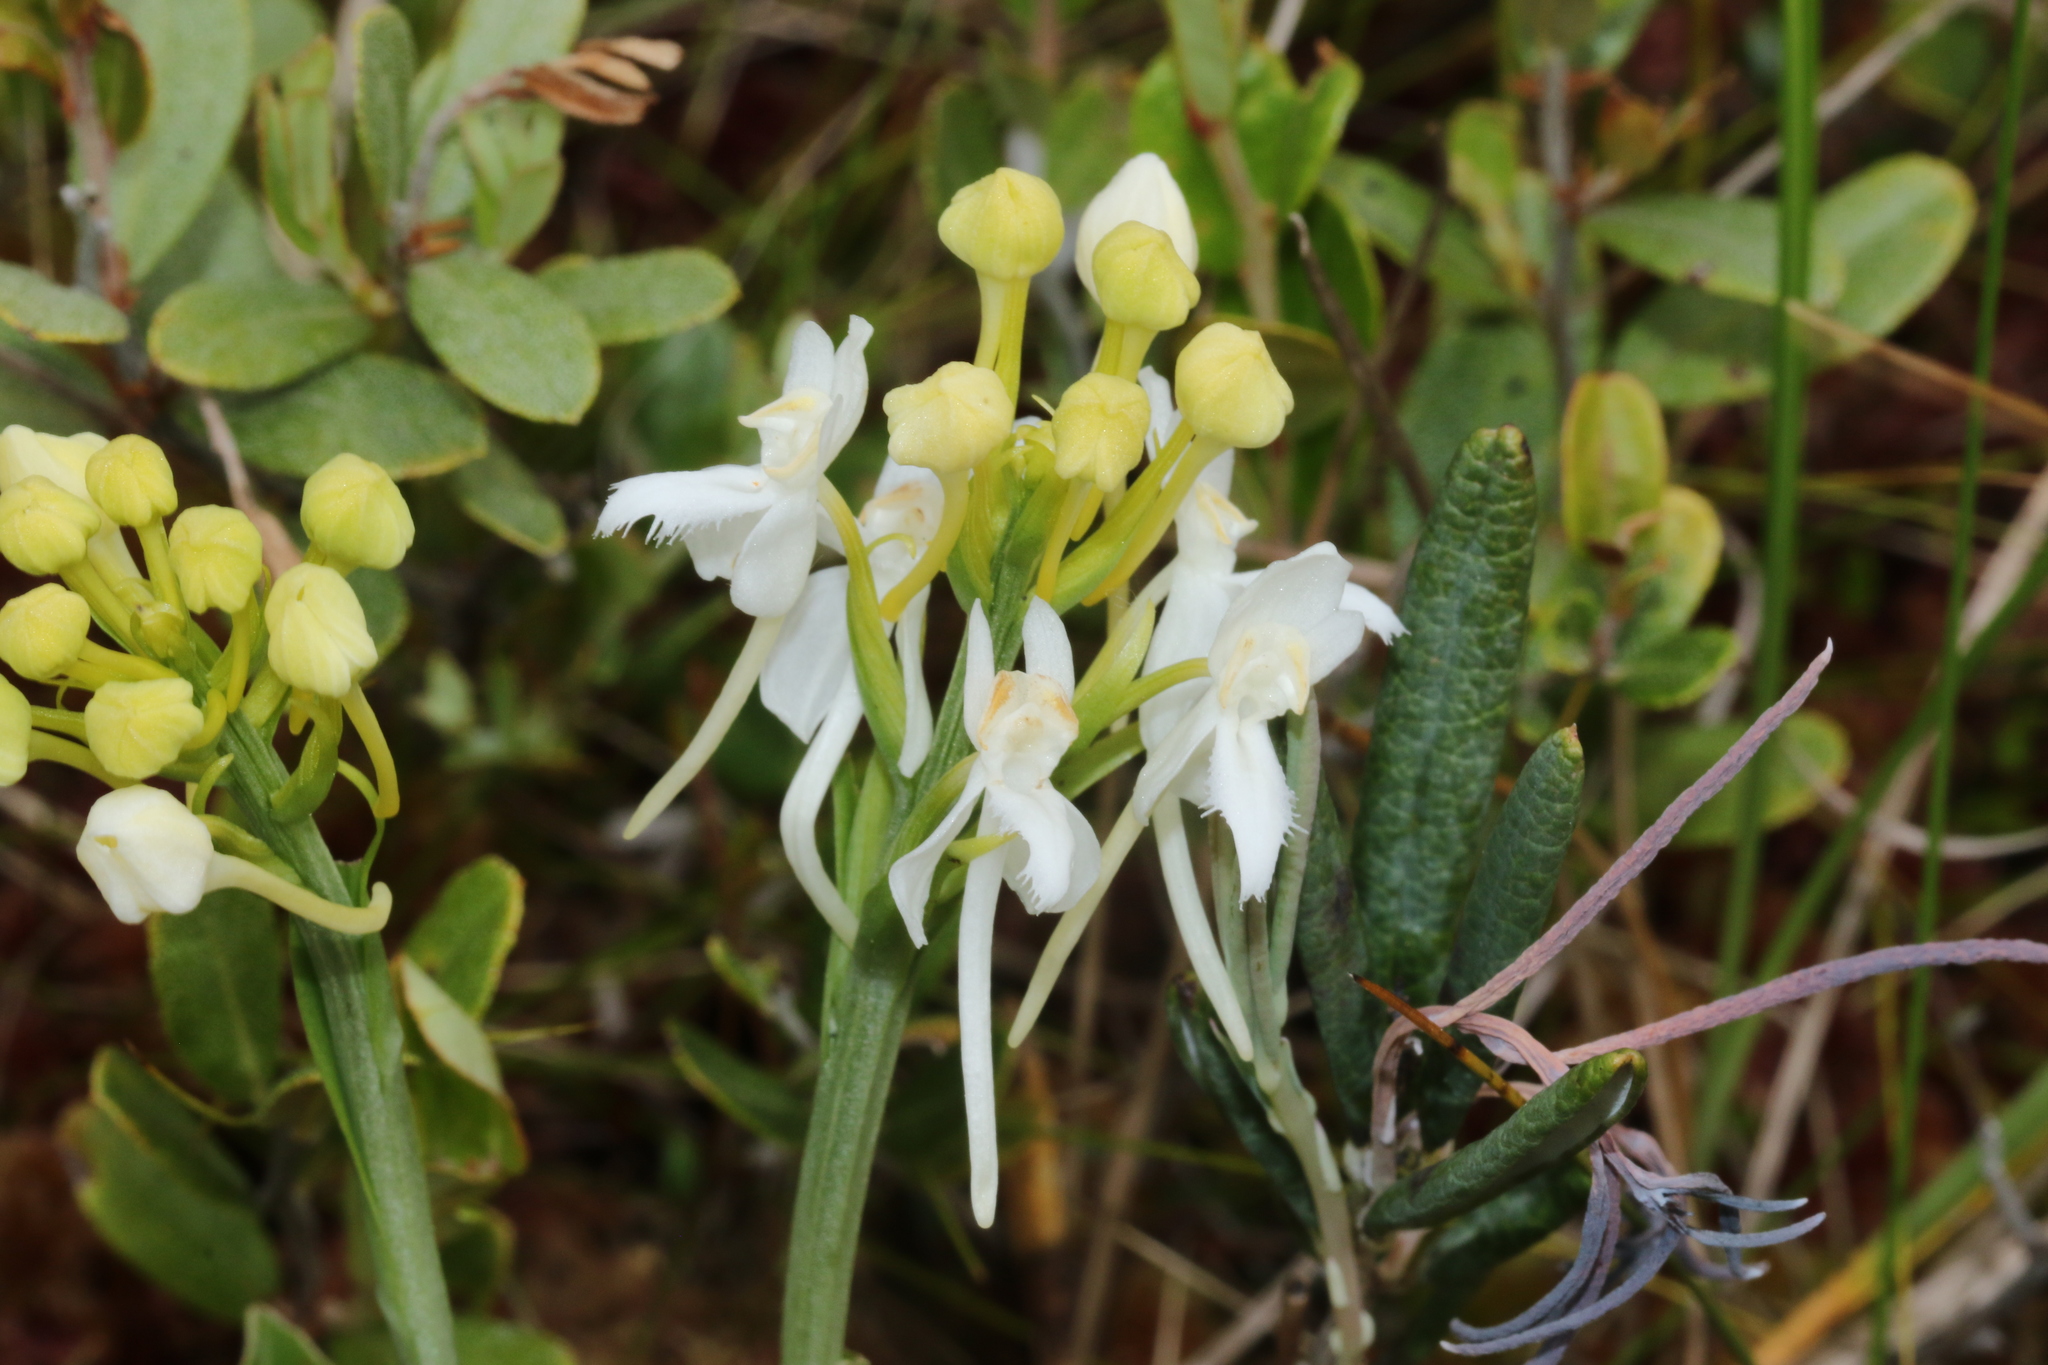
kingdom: Plantae
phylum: Tracheophyta
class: Liliopsida
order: Asparagales
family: Orchidaceae
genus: Platanthera
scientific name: Platanthera blephariglottis
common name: White fringed orchid
